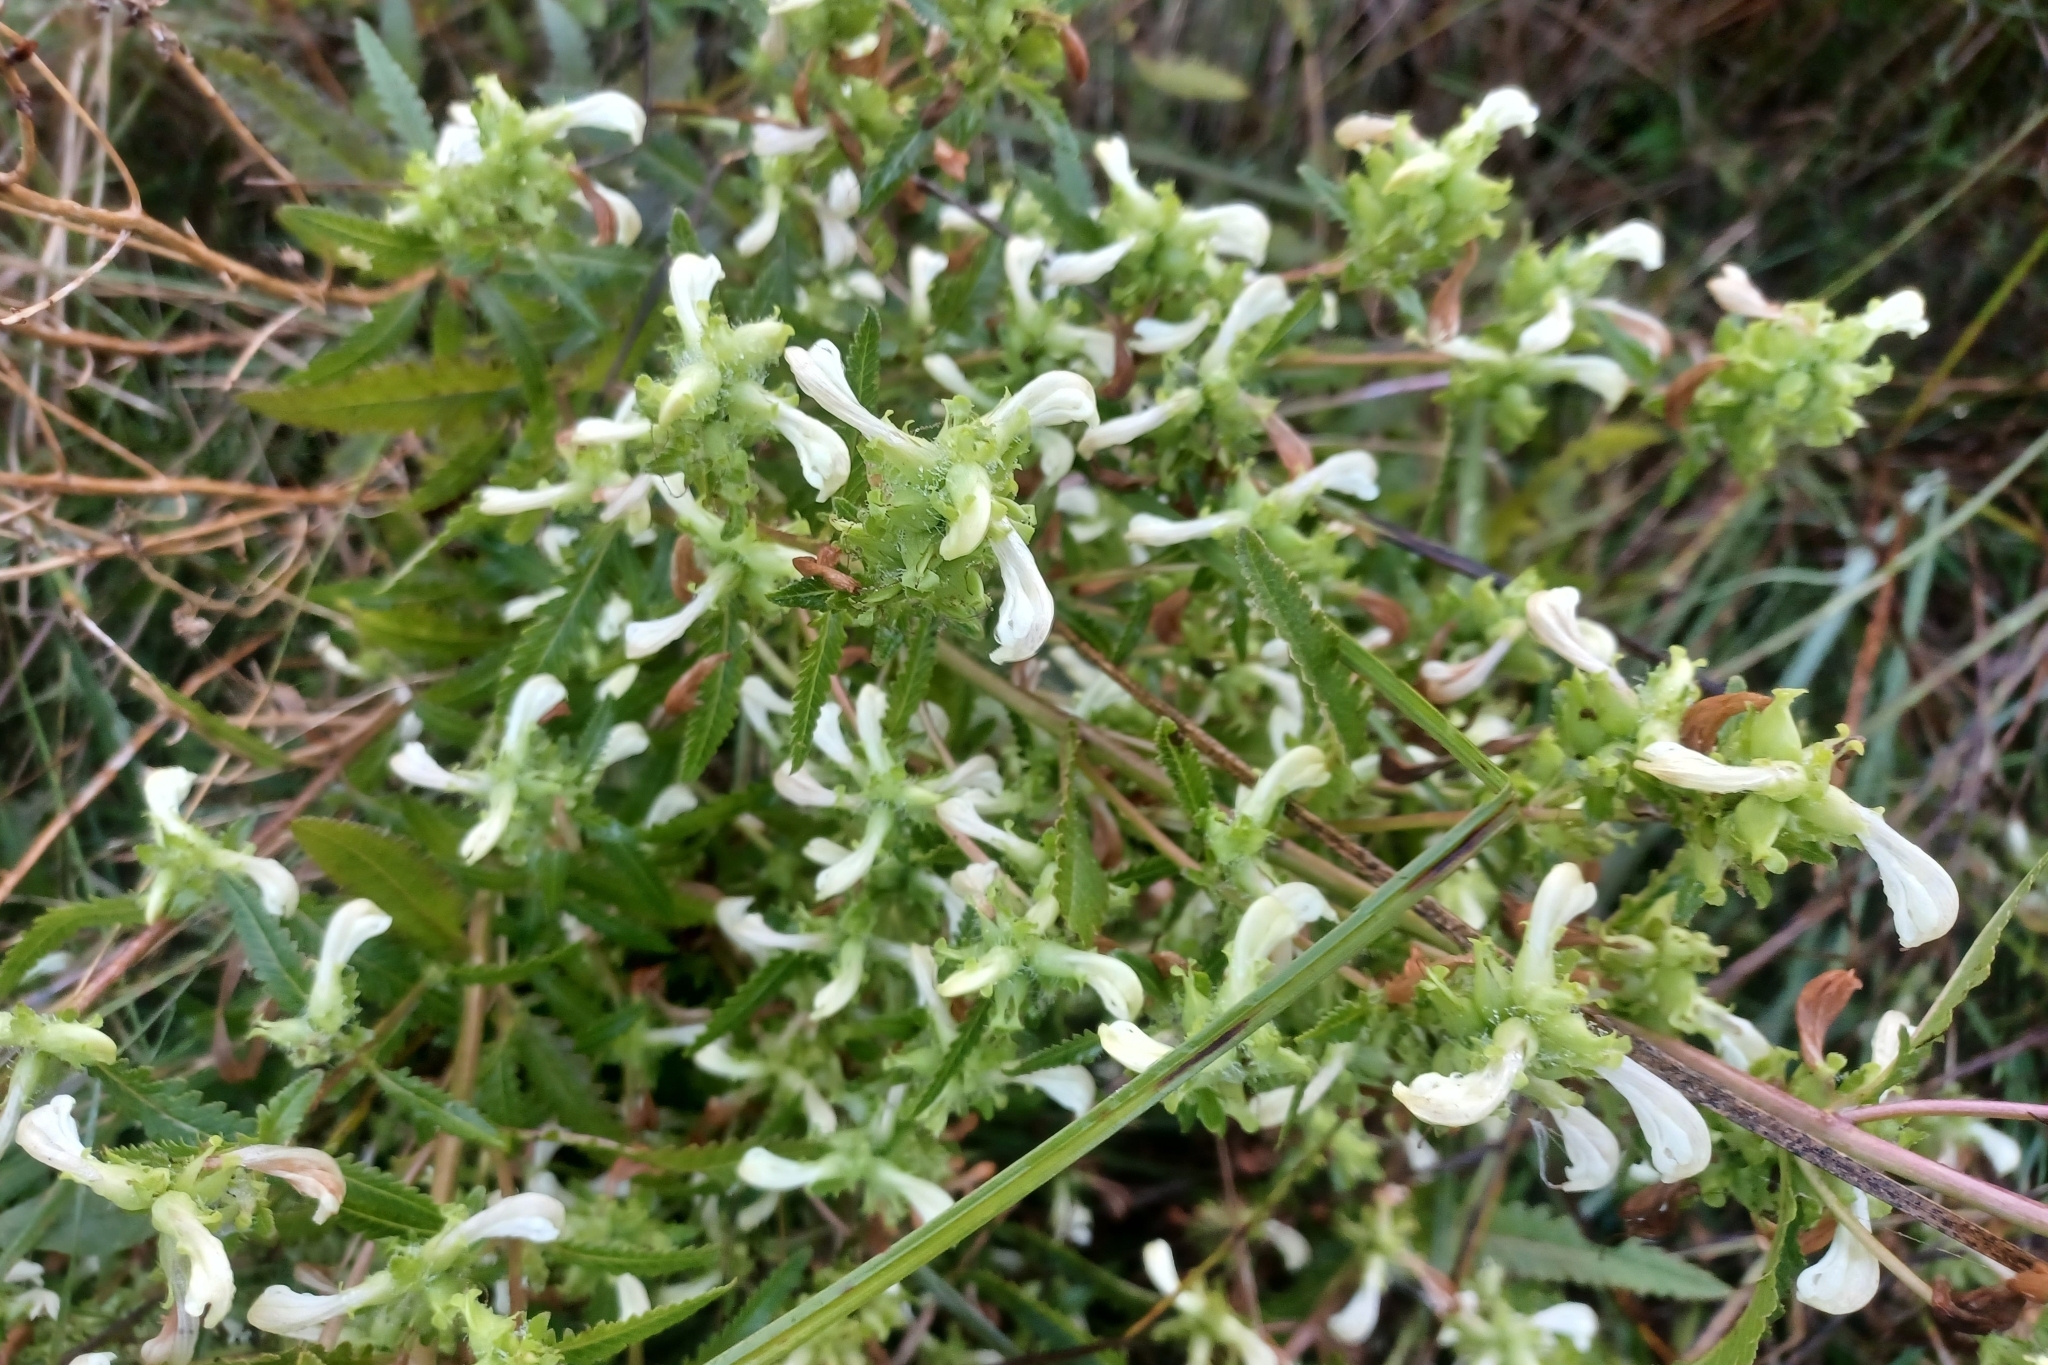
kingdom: Plantae
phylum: Tracheophyta
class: Magnoliopsida
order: Lamiales
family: Orobanchaceae
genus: Pedicularis
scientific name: Pedicularis lanceolata
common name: Swamp lousewort
